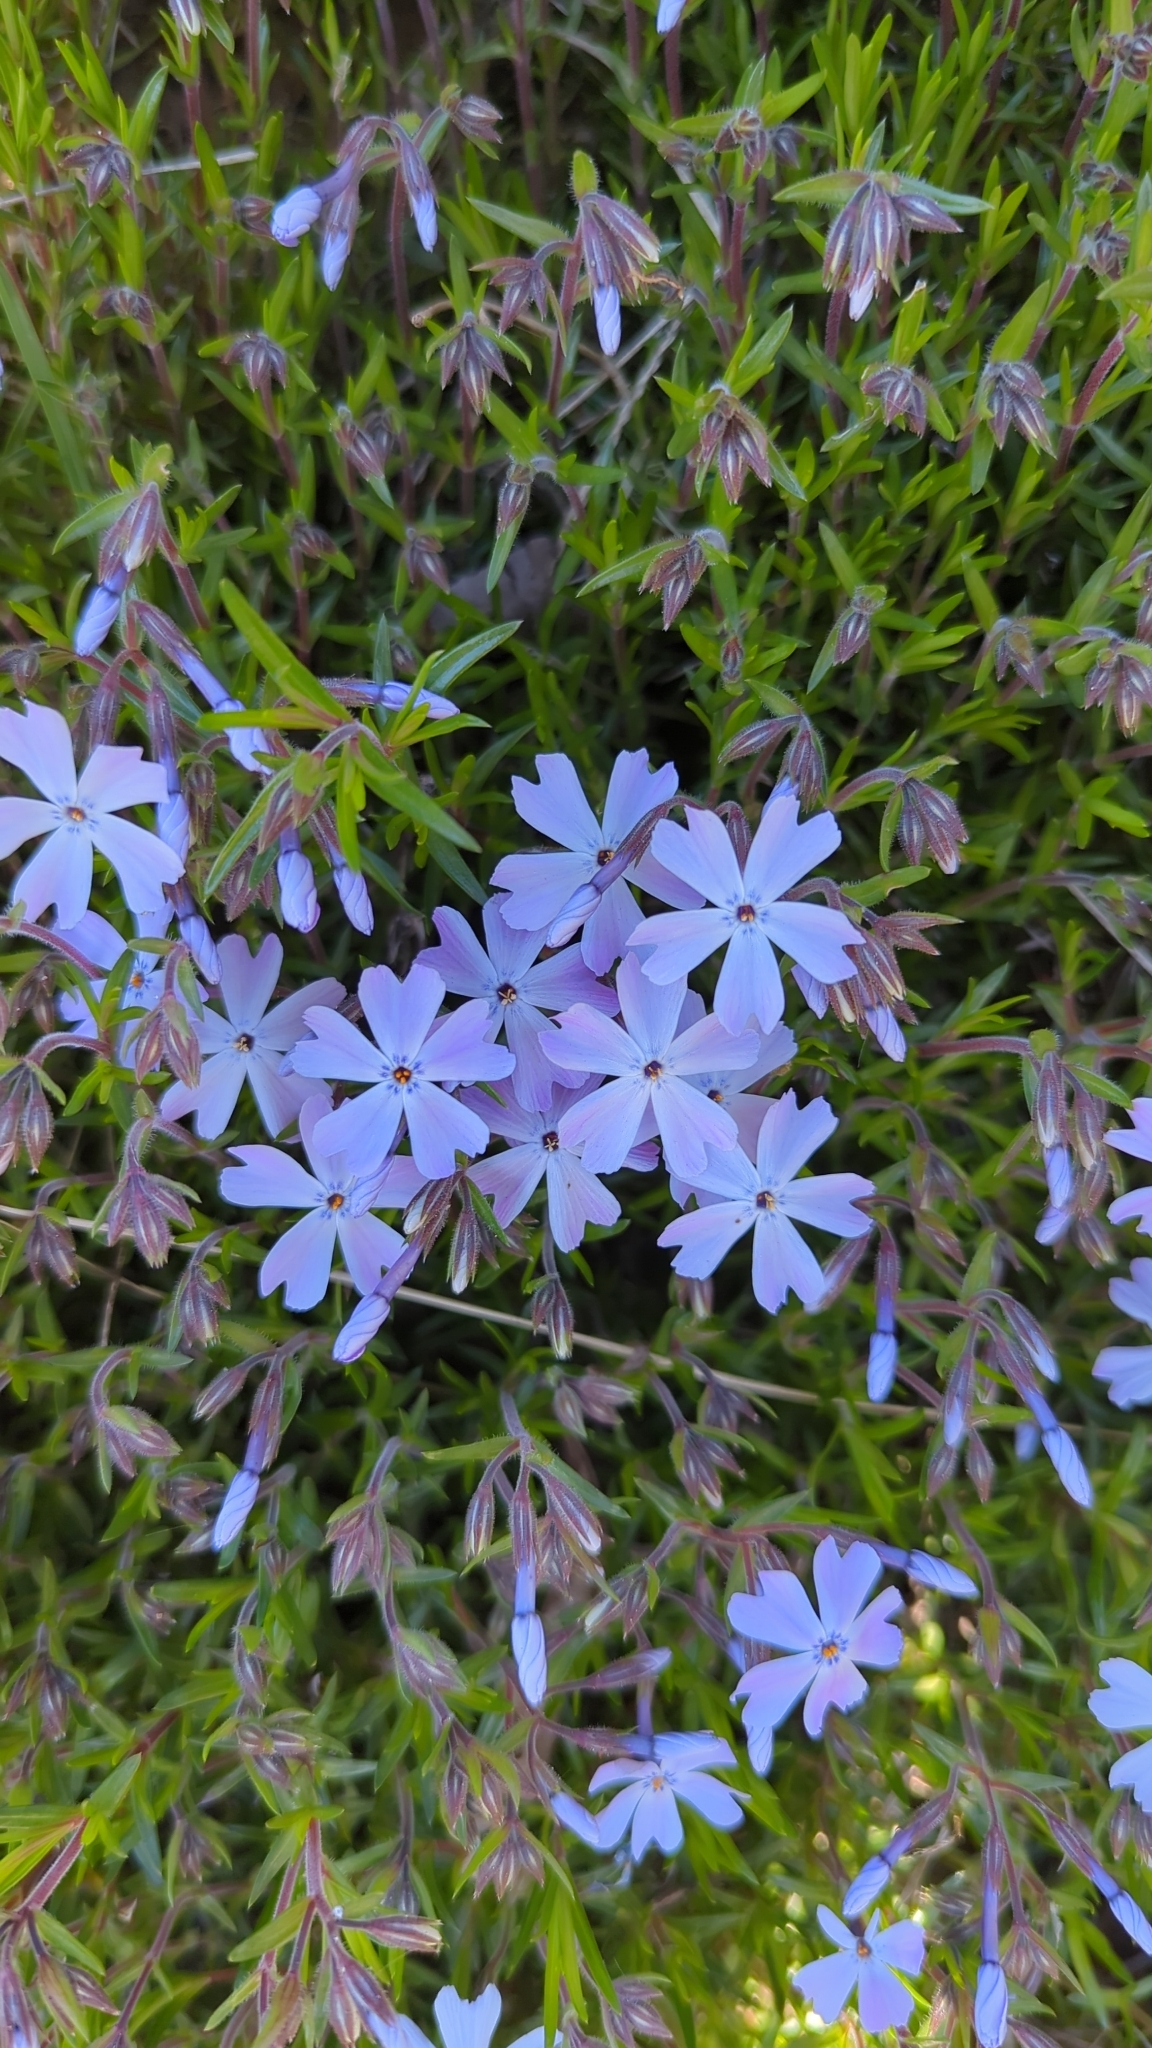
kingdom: Plantae
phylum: Tracheophyta
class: Magnoliopsida
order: Ericales
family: Polemoniaceae
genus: Phlox
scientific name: Phlox subulata
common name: Moss phlox
